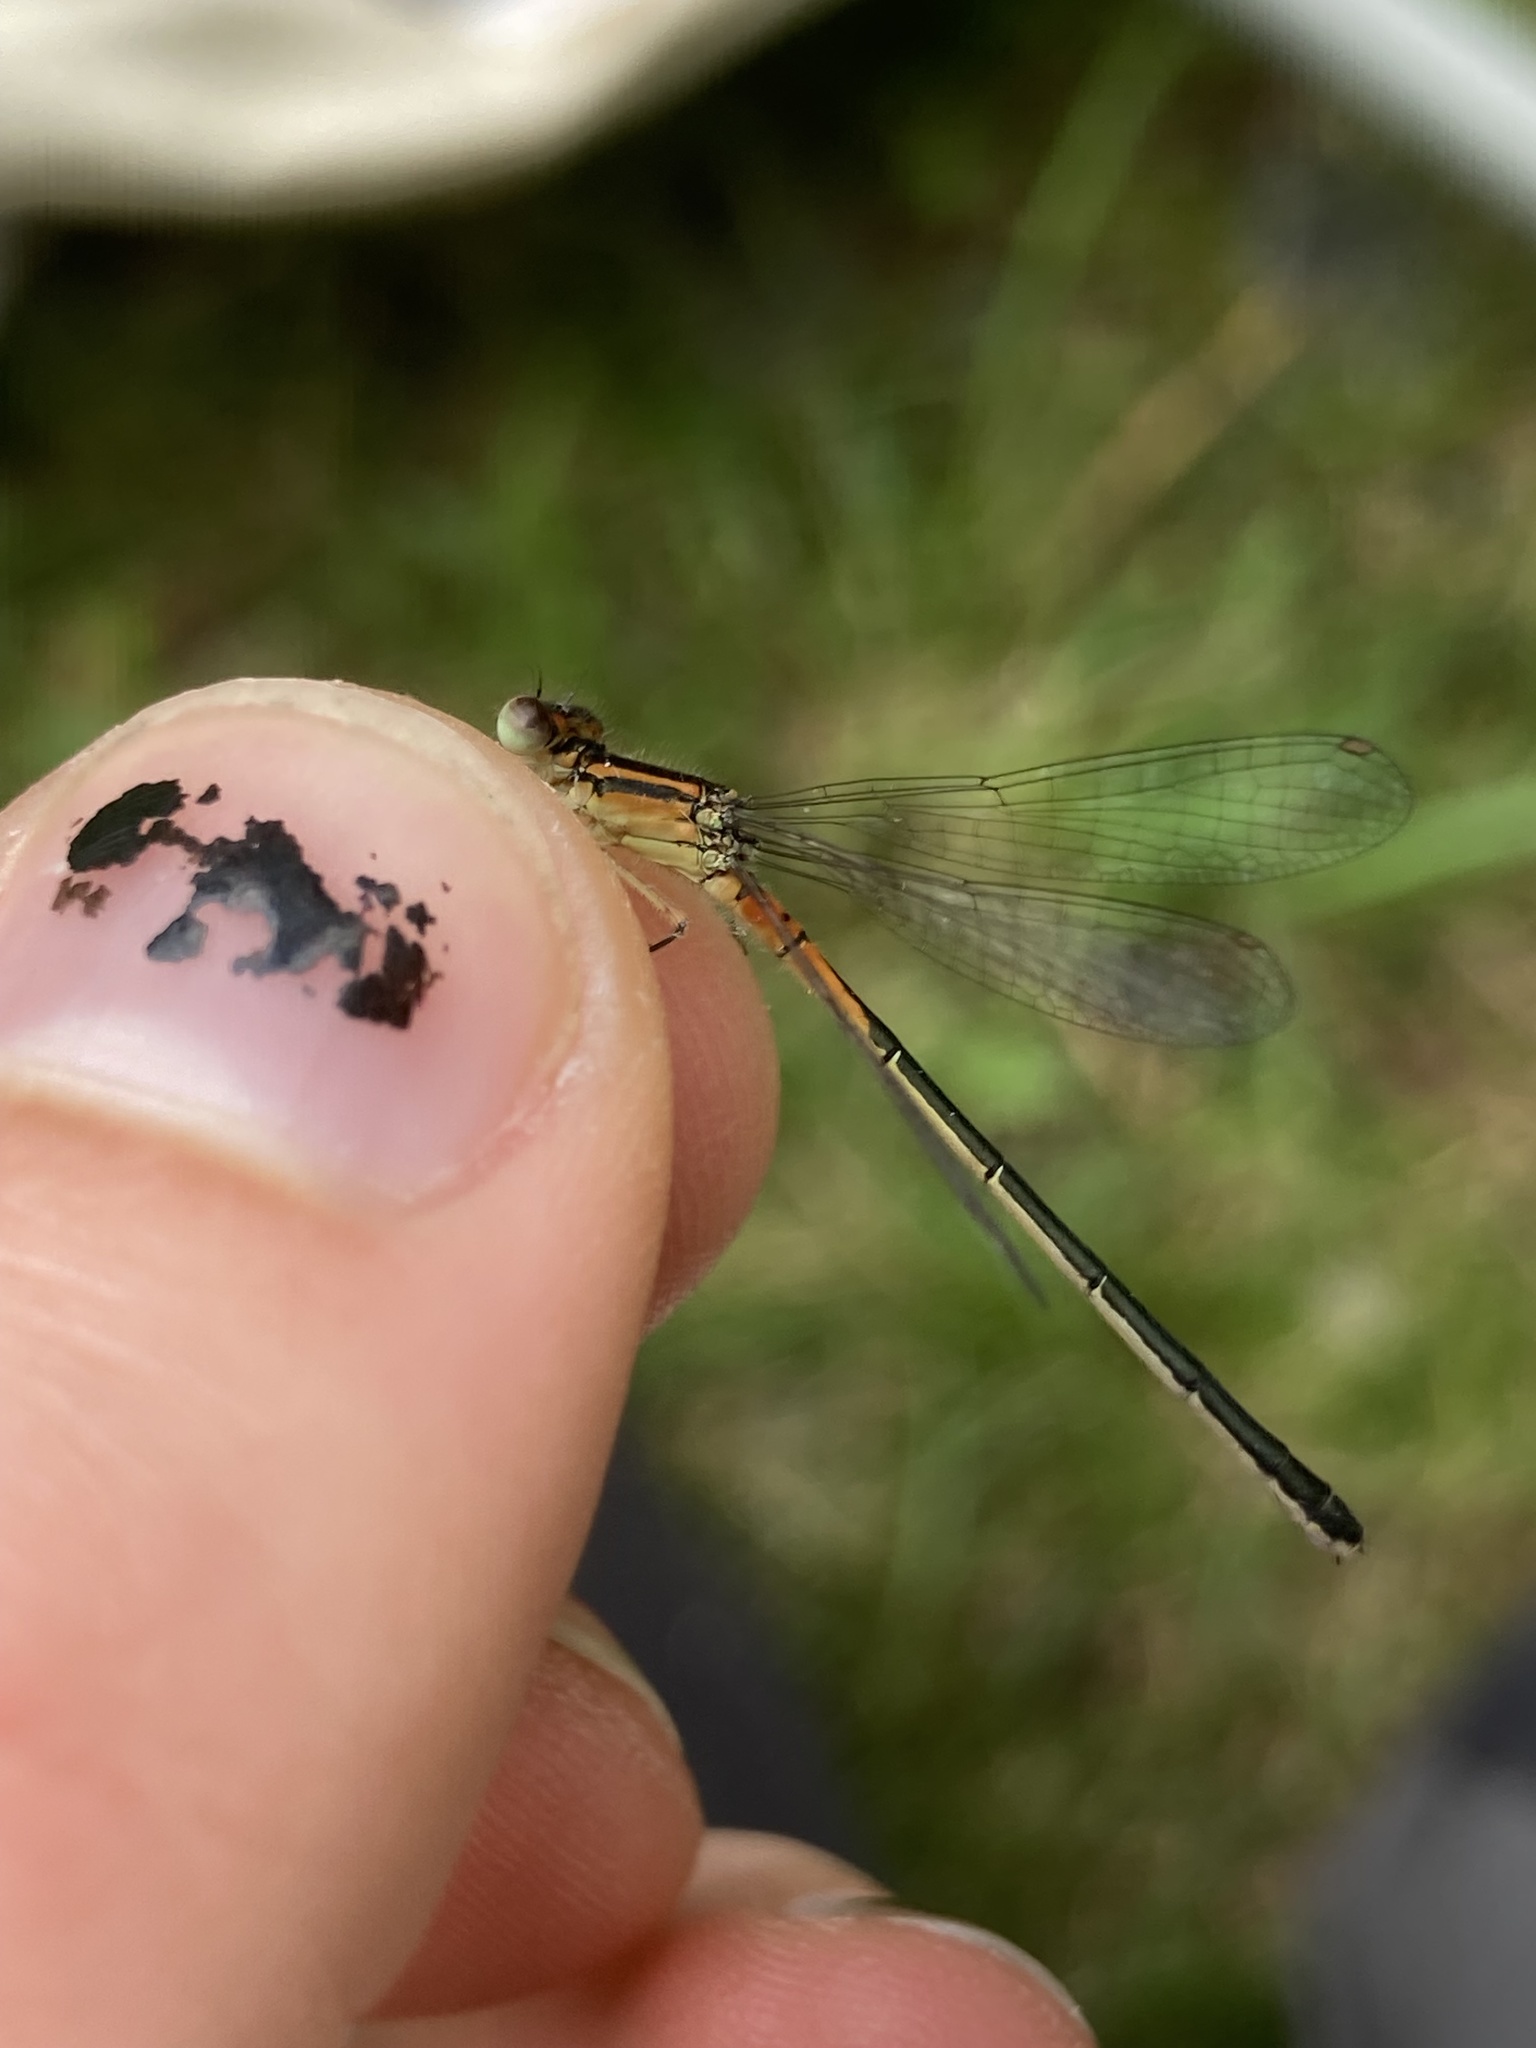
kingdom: Animalia
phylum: Arthropoda
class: Insecta
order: Odonata
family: Coenagrionidae
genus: Ischnura
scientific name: Ischnura verticalis
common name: Eastern forktail
